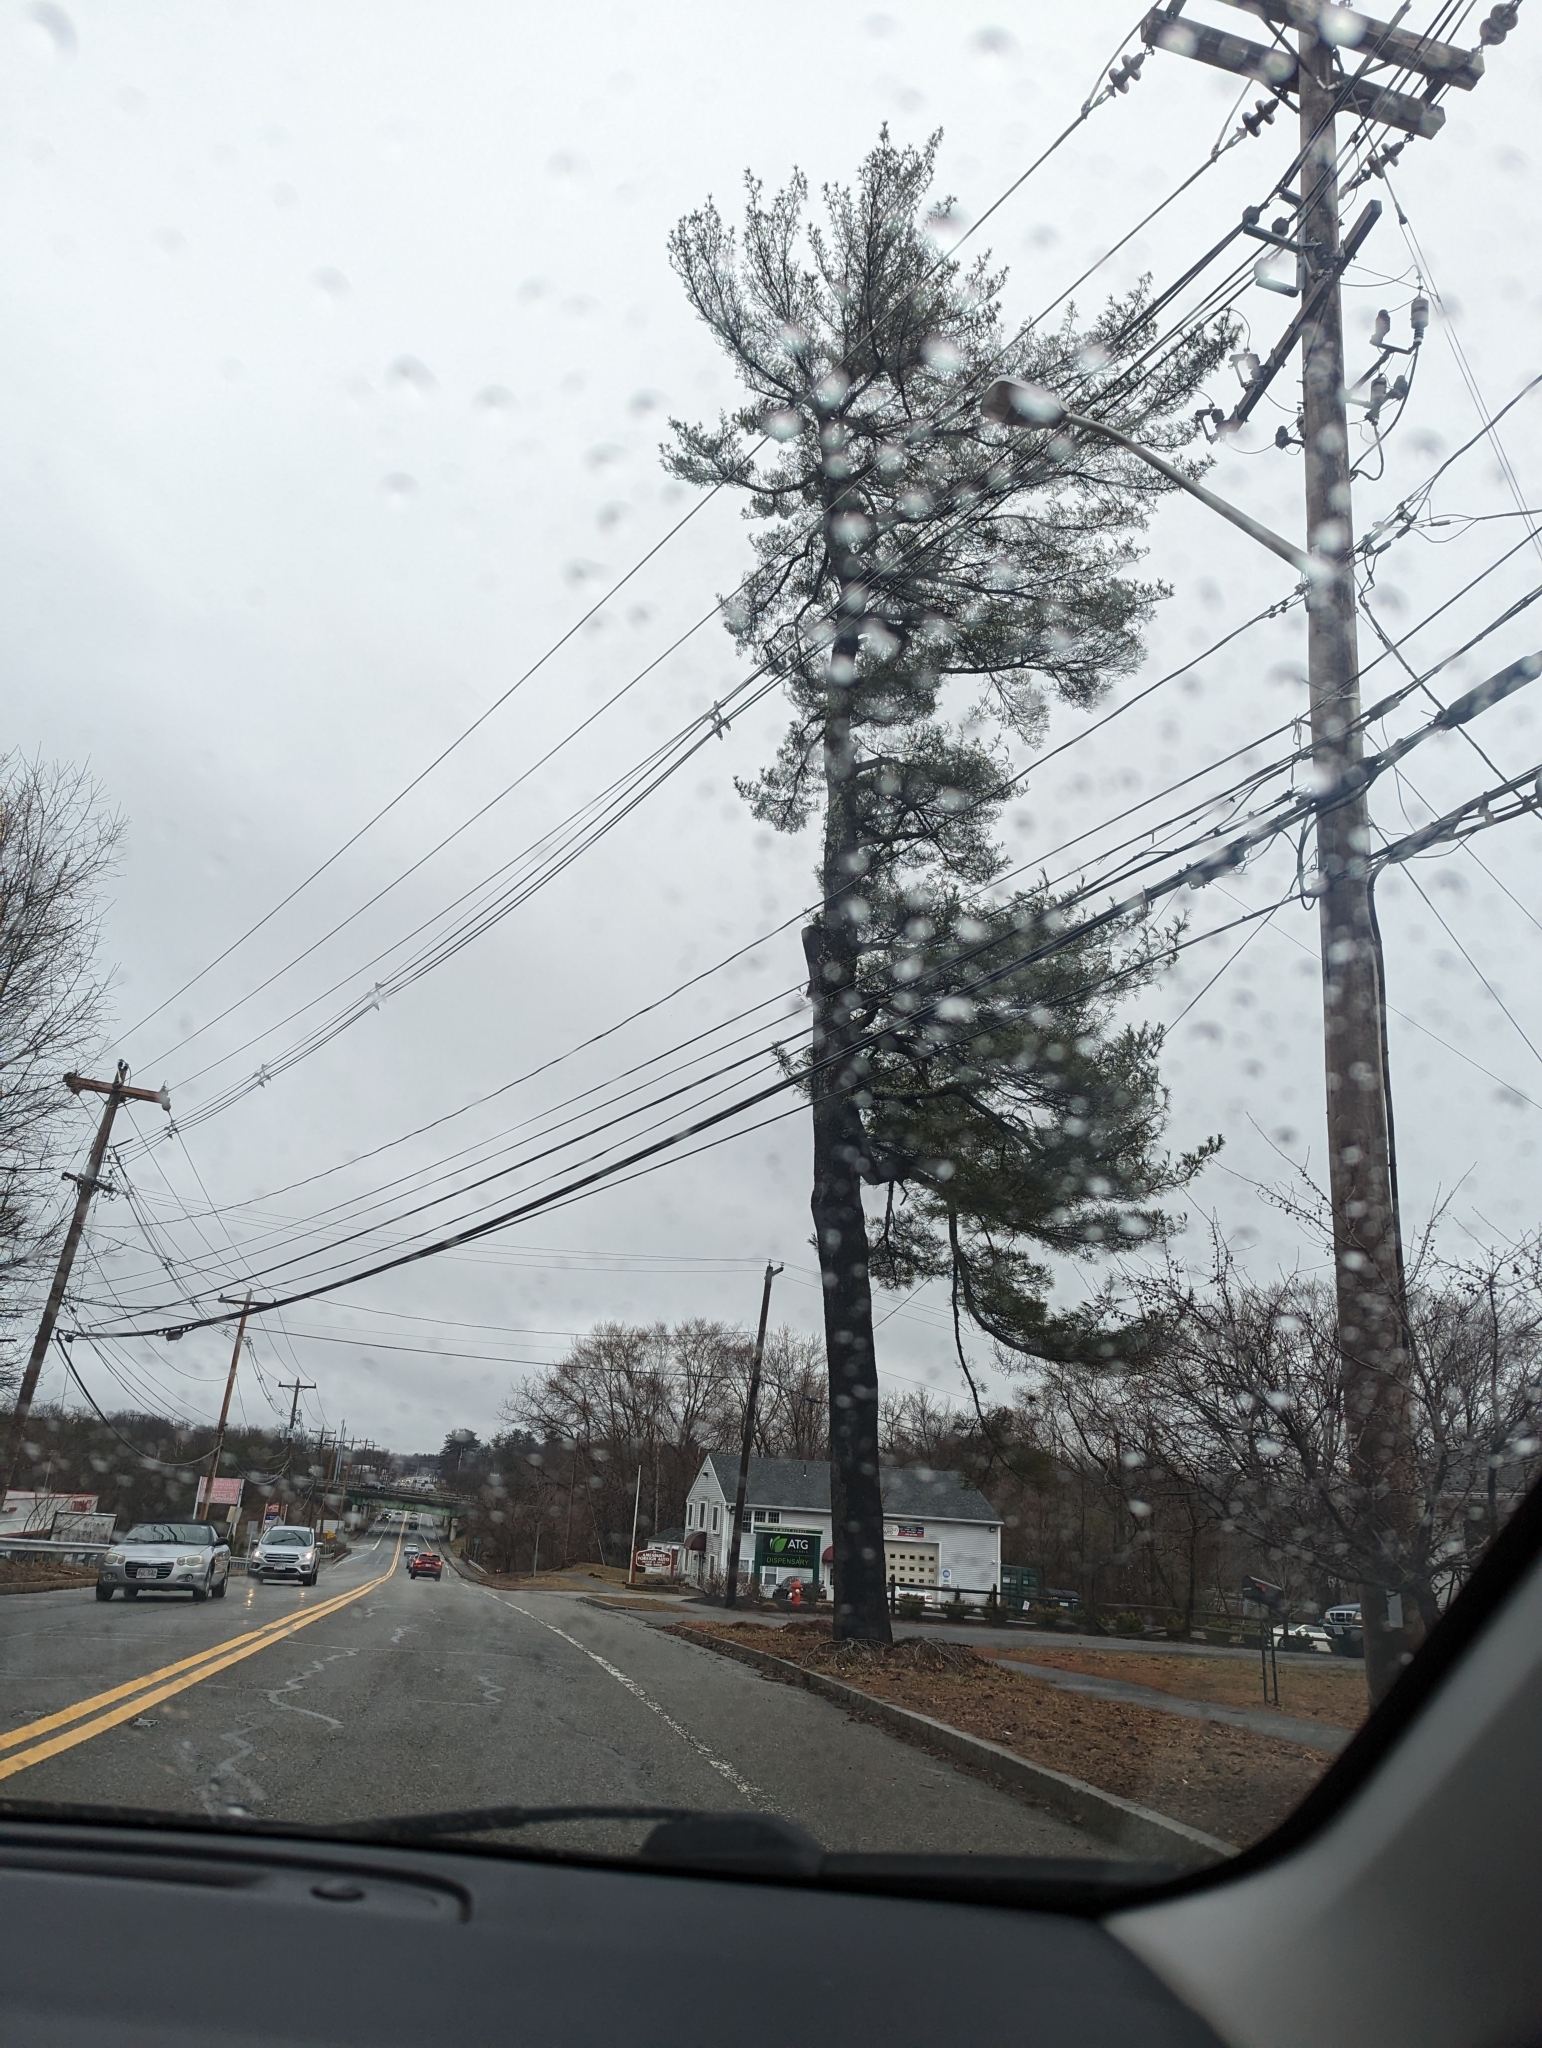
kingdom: Plantae
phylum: Tracheophyta
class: Pinopsida
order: Pinales
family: Pinaceae
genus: Pinus
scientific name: Pinus strobus
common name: Weymouth pine
